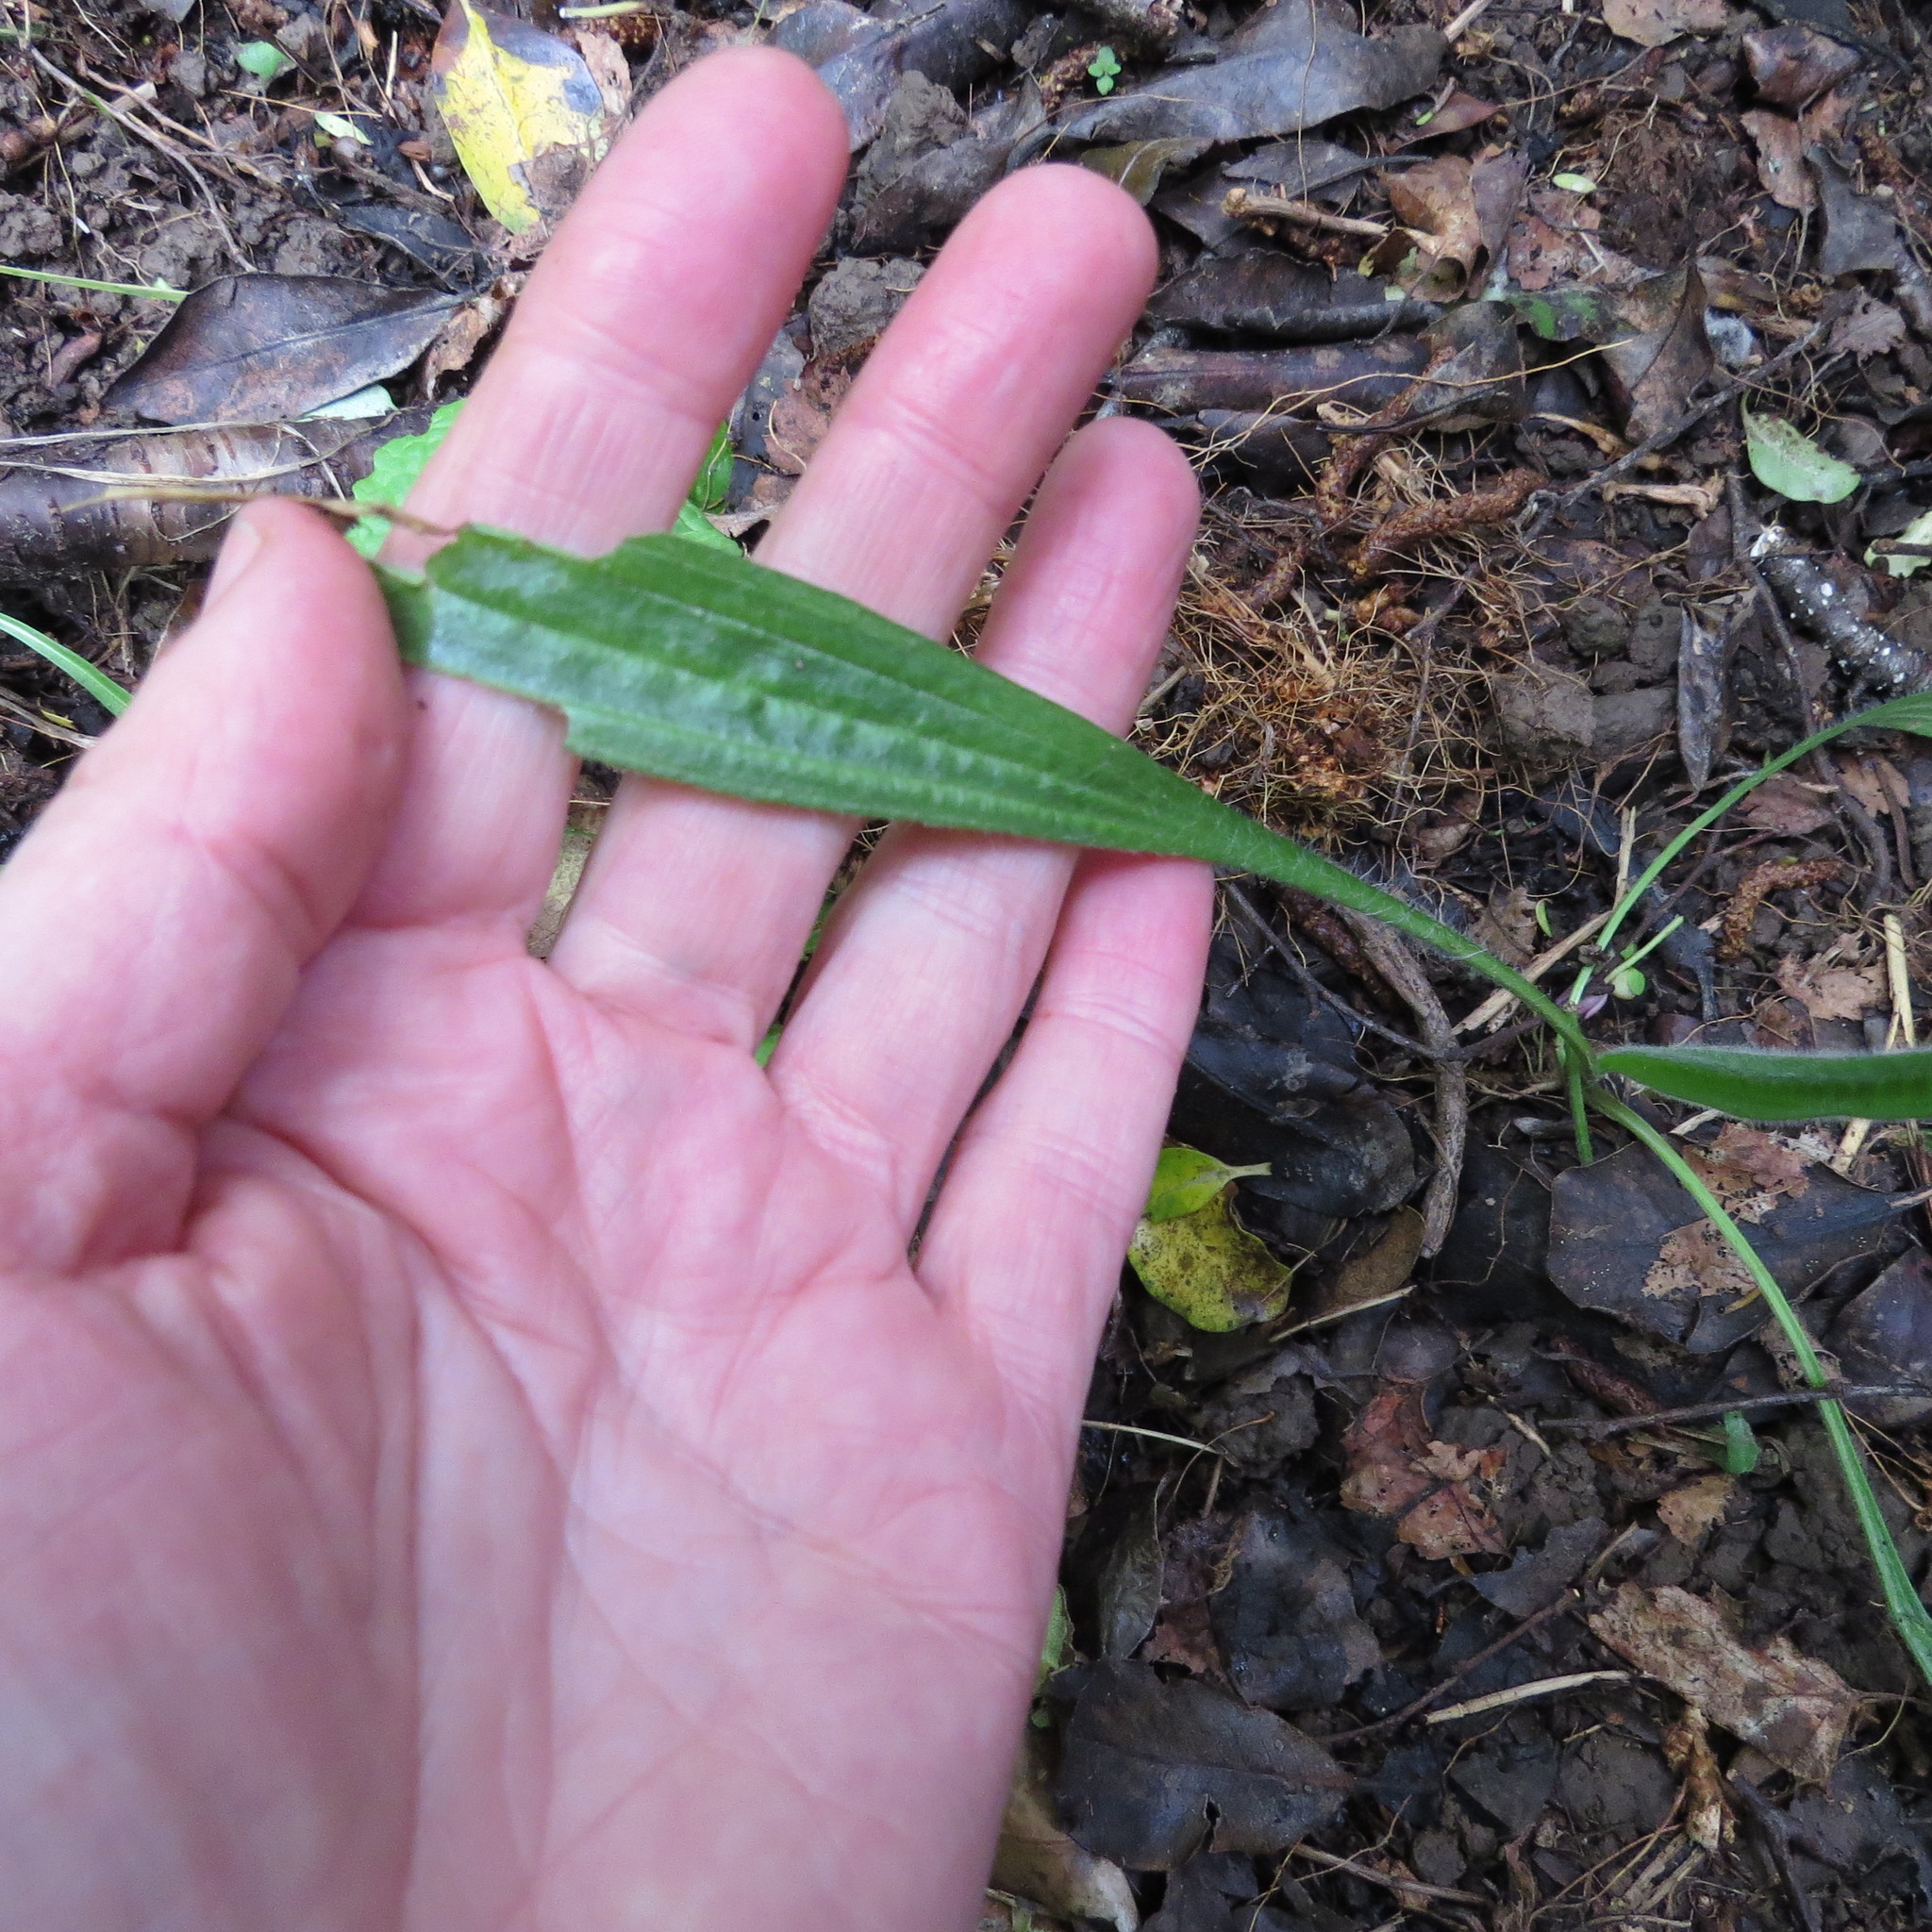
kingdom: Plantae
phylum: Tracheophyta
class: Magnoliopsida
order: Lamiales
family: Plantaginaceae
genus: Plantago
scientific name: Plantago lanceolata
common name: Ribwort plantain
